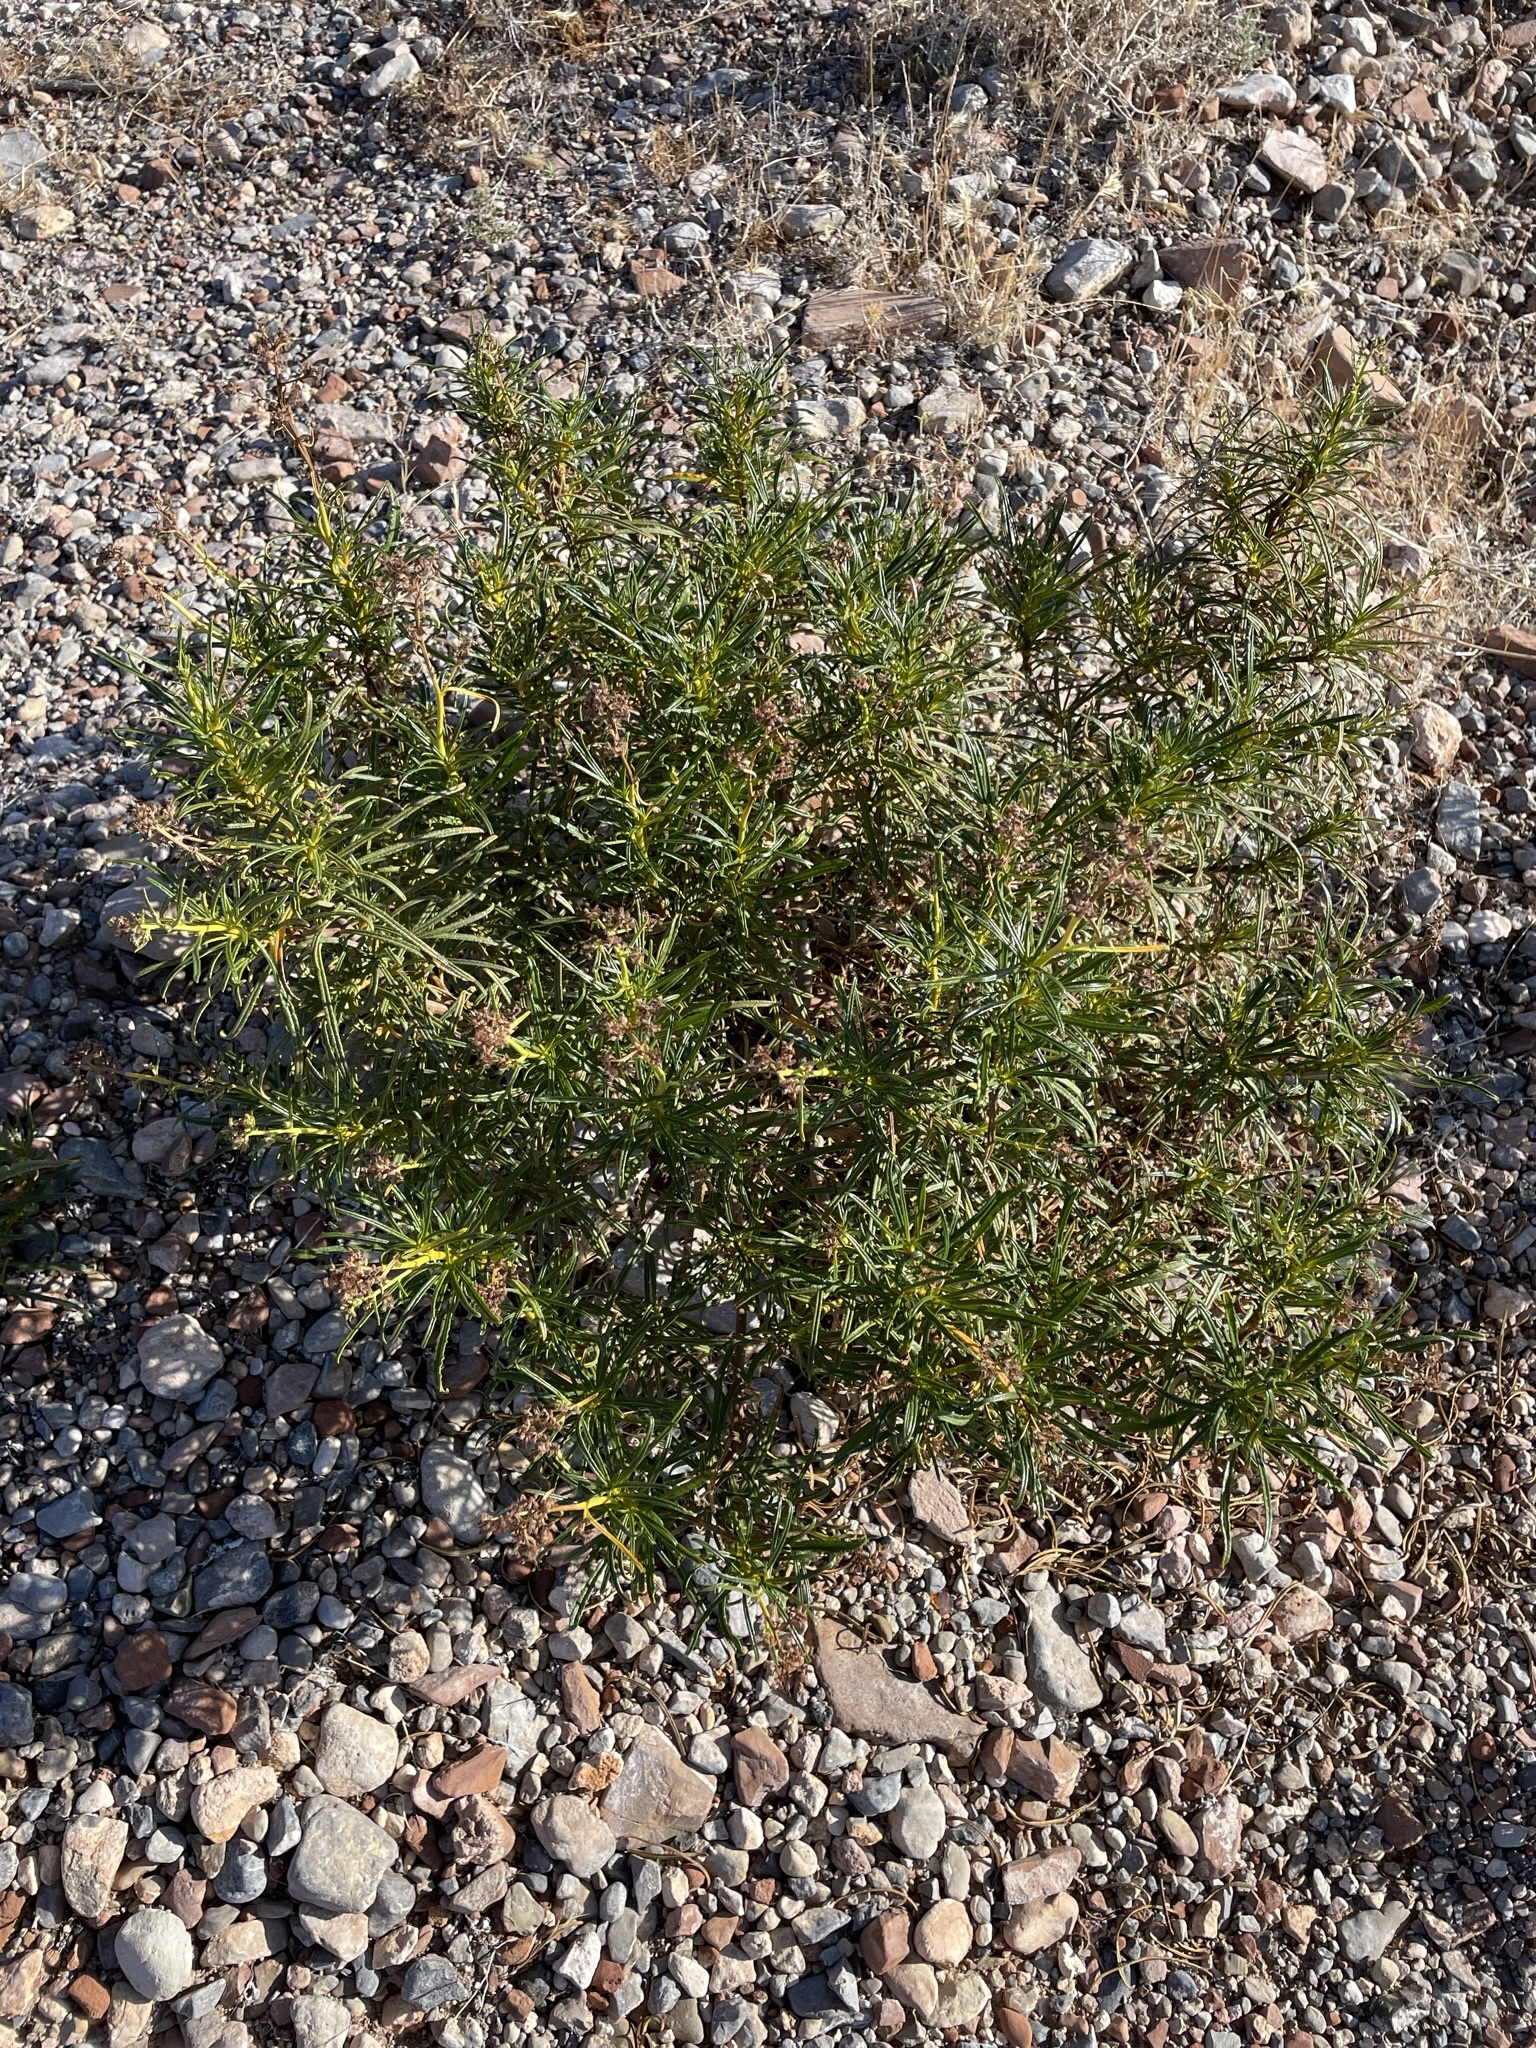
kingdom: Plantae
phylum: Tracheophyta
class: Magnoliopsida
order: Boraginales
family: Namaceae
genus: Eriodictyon
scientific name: Eriodictyon angustifolium
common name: Narrow-leaf yerba santa
